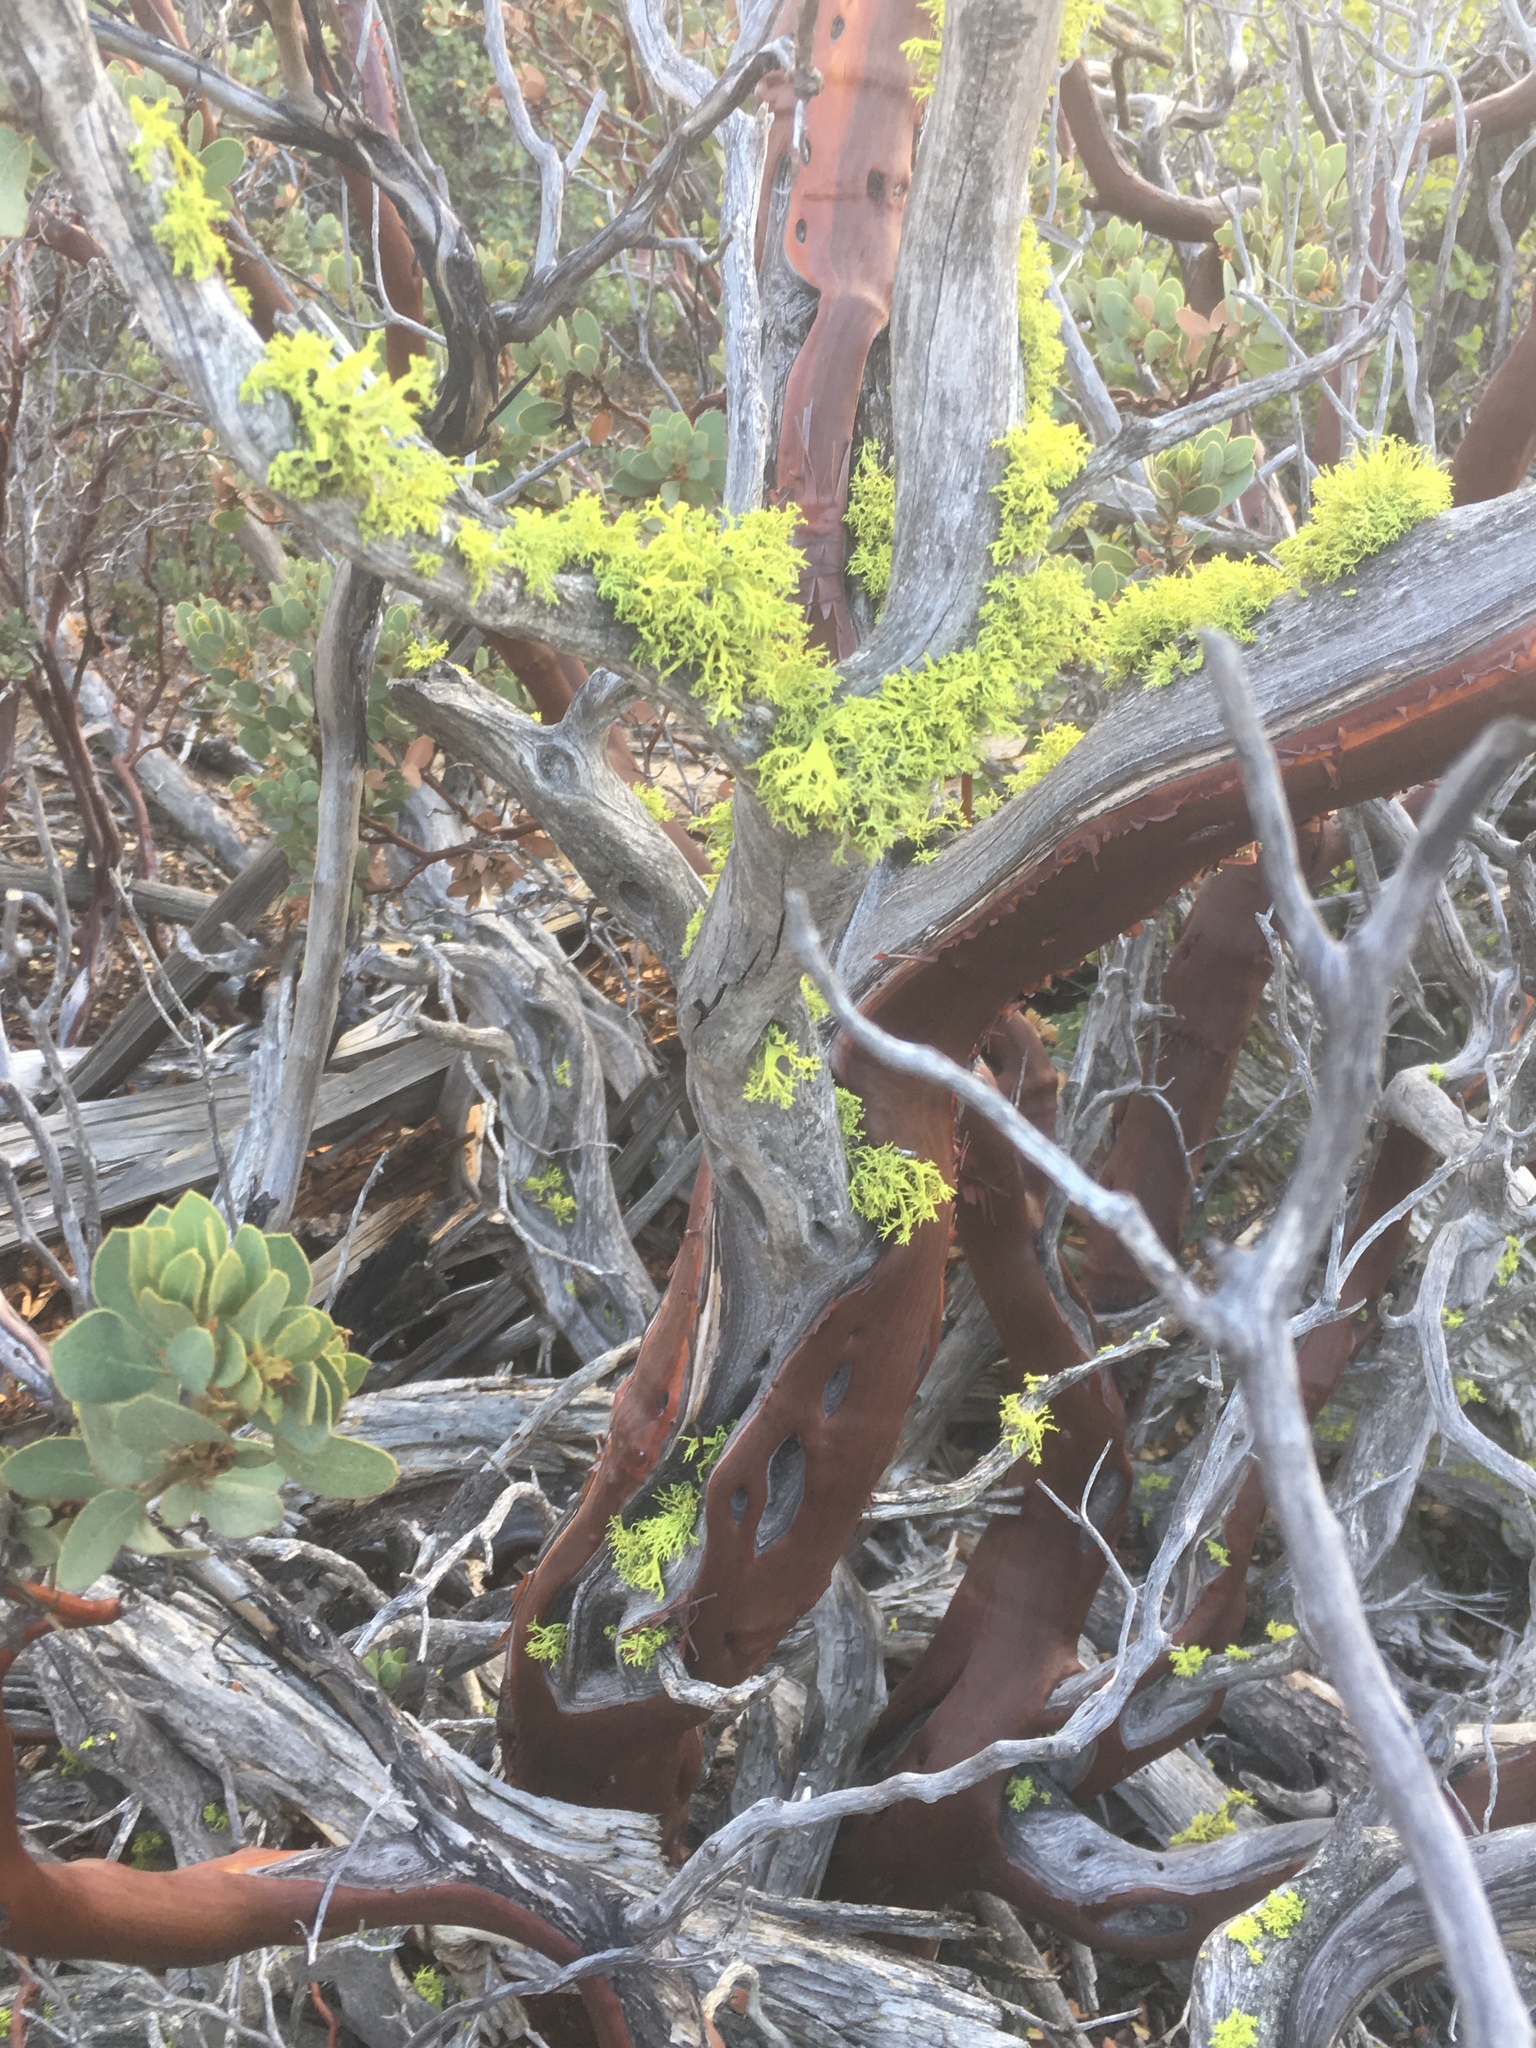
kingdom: Fungi
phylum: Ascomycota
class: Lecanoromycetes
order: Lecanorales
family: Parmeliaceae
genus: Letharia
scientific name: Letharia columbiana
